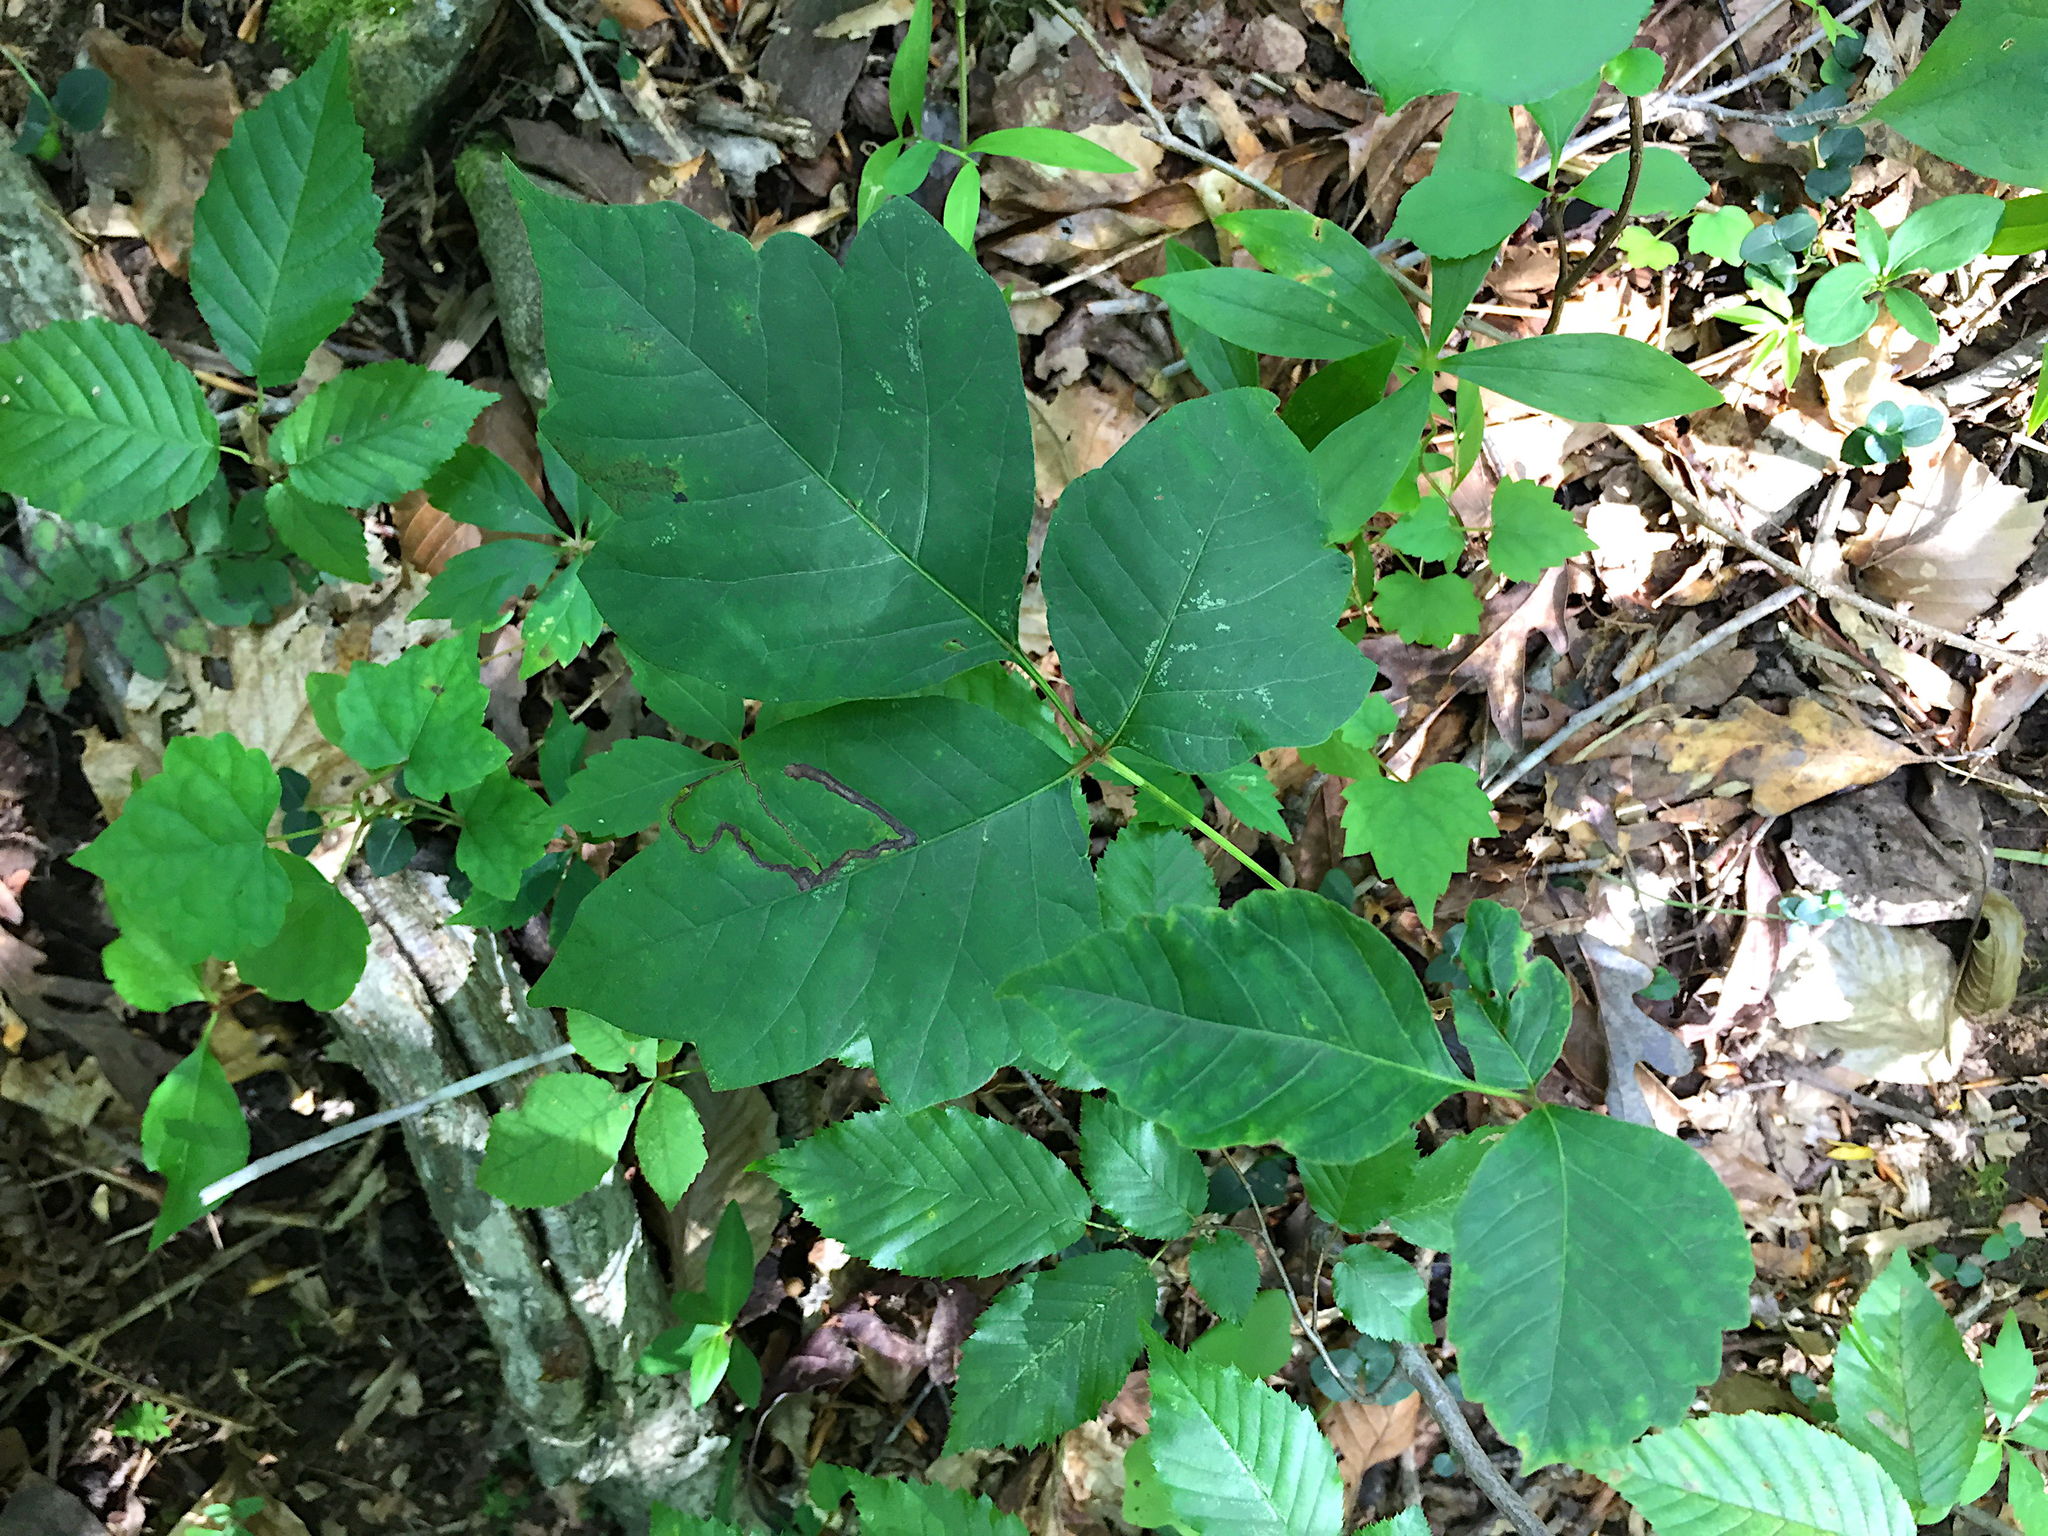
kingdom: Plantae
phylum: Tracheophyta
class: Magnoliopsida
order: Sapindales
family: Anacardiaceae
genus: Toxicodendron
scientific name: Toxicodendron radicans
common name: Poison ivy
